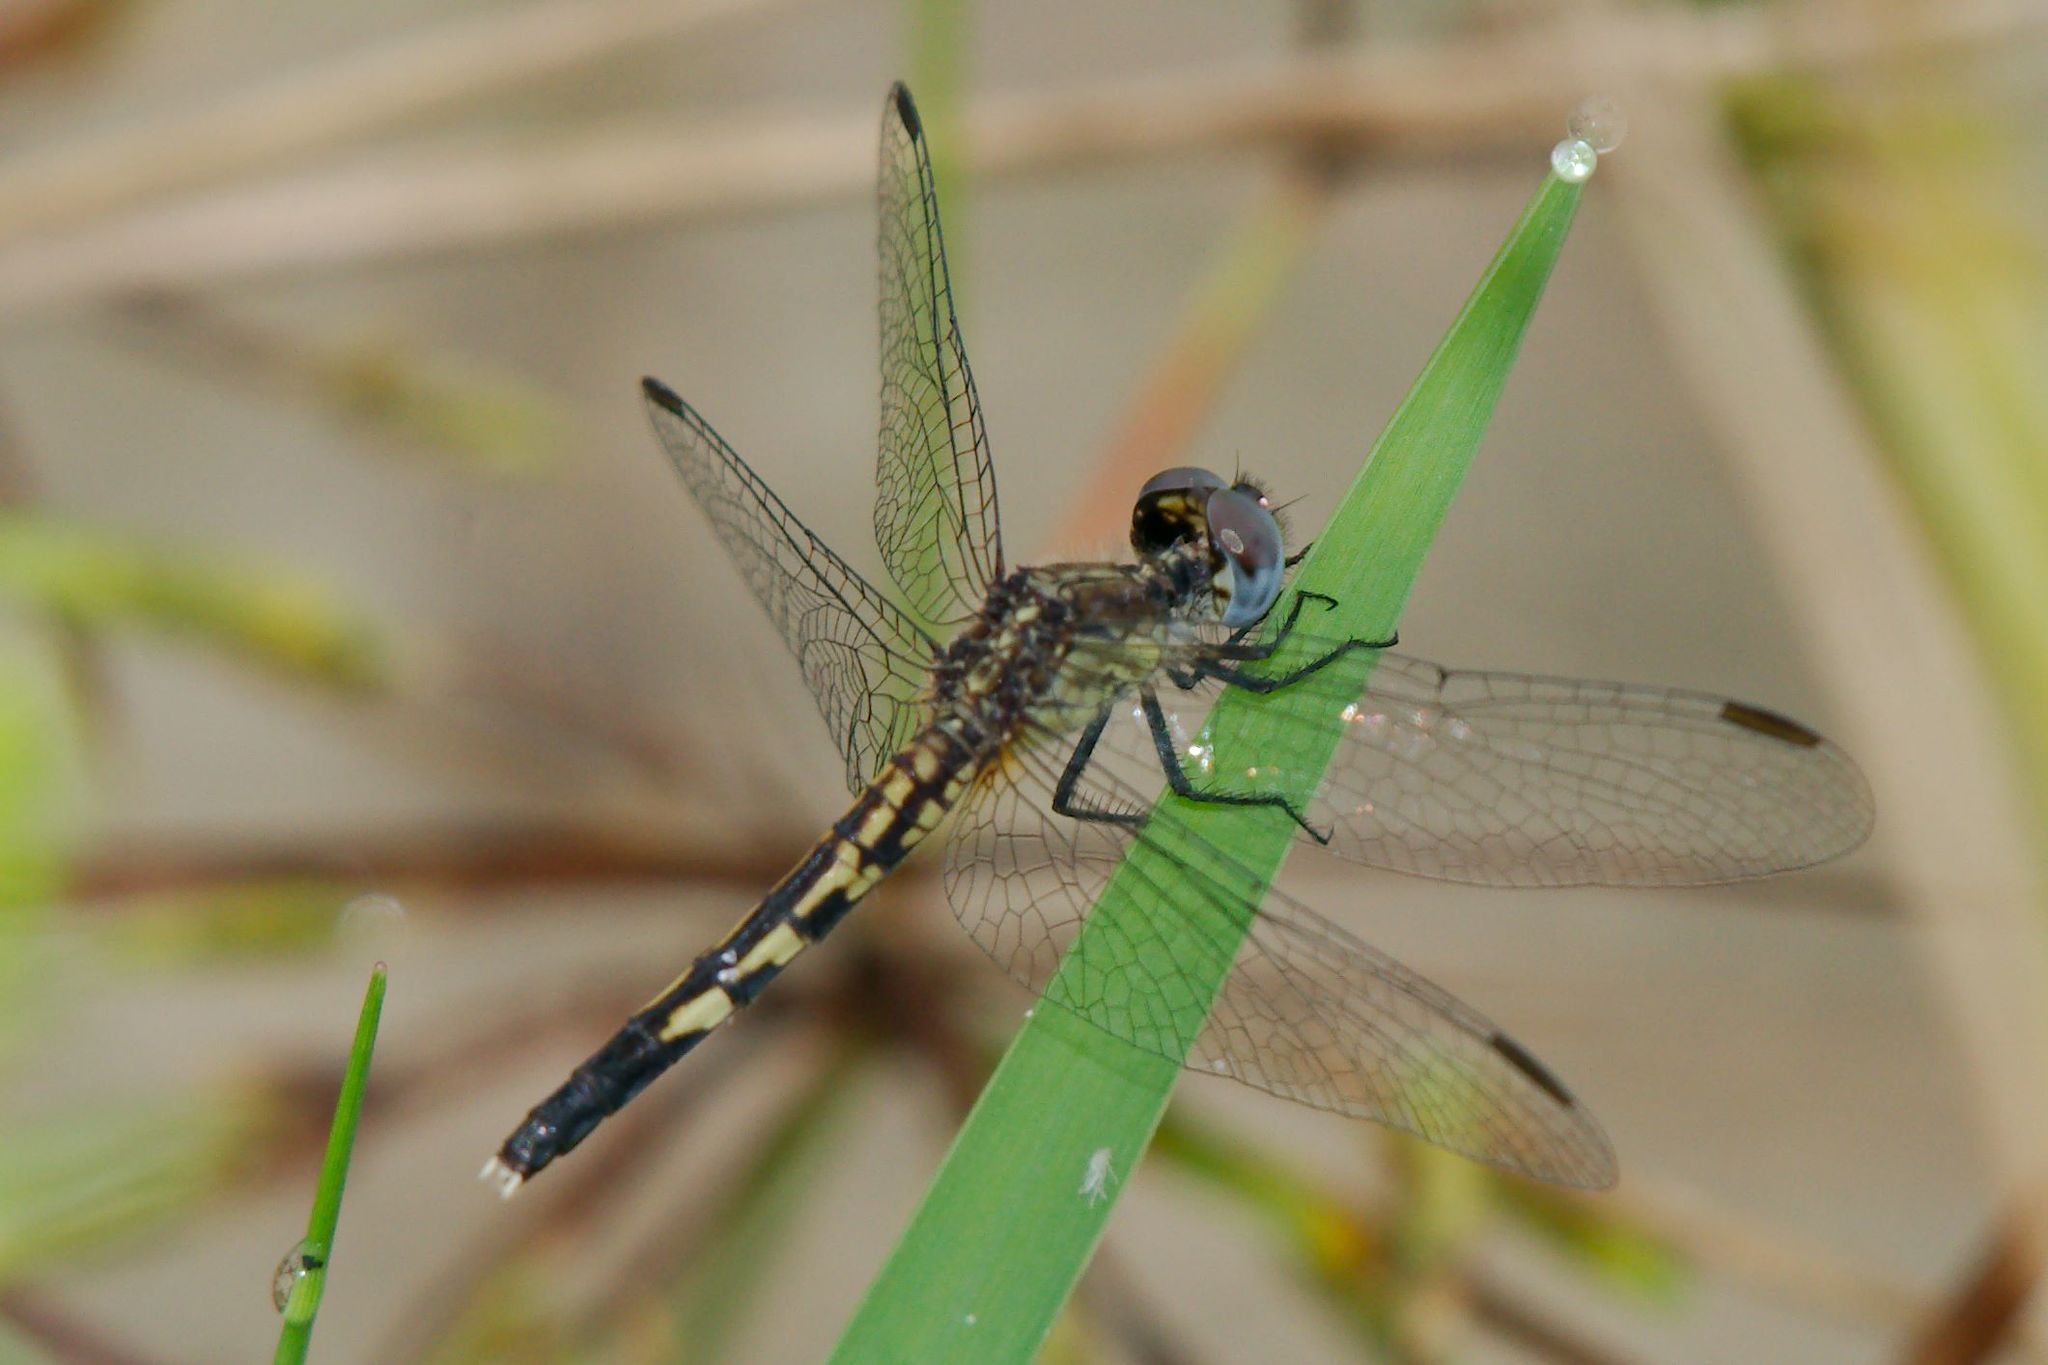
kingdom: Animalia
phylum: Arthropoda
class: Insecta
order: Odonata
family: Libellulidae
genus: Erythrodiplax
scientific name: Erythrodiplax minuscula
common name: Little blue dragonlet
